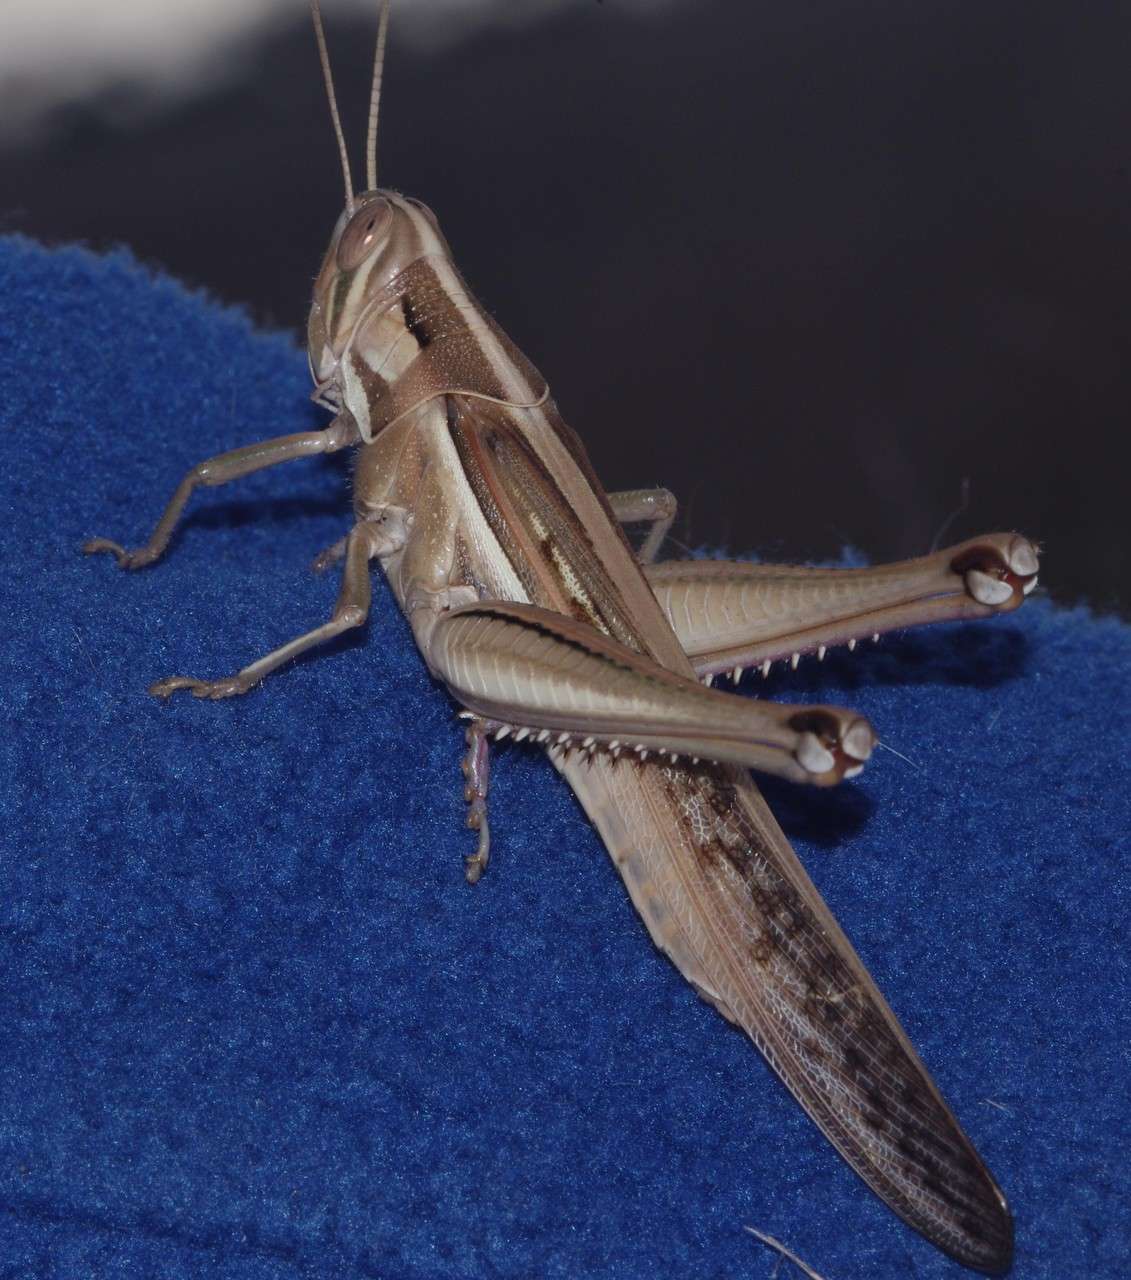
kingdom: Animalia
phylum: Arthropoda
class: Insecta
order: Orthoptera
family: Acrididae
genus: Austracris
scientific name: Austracris guttulosa
